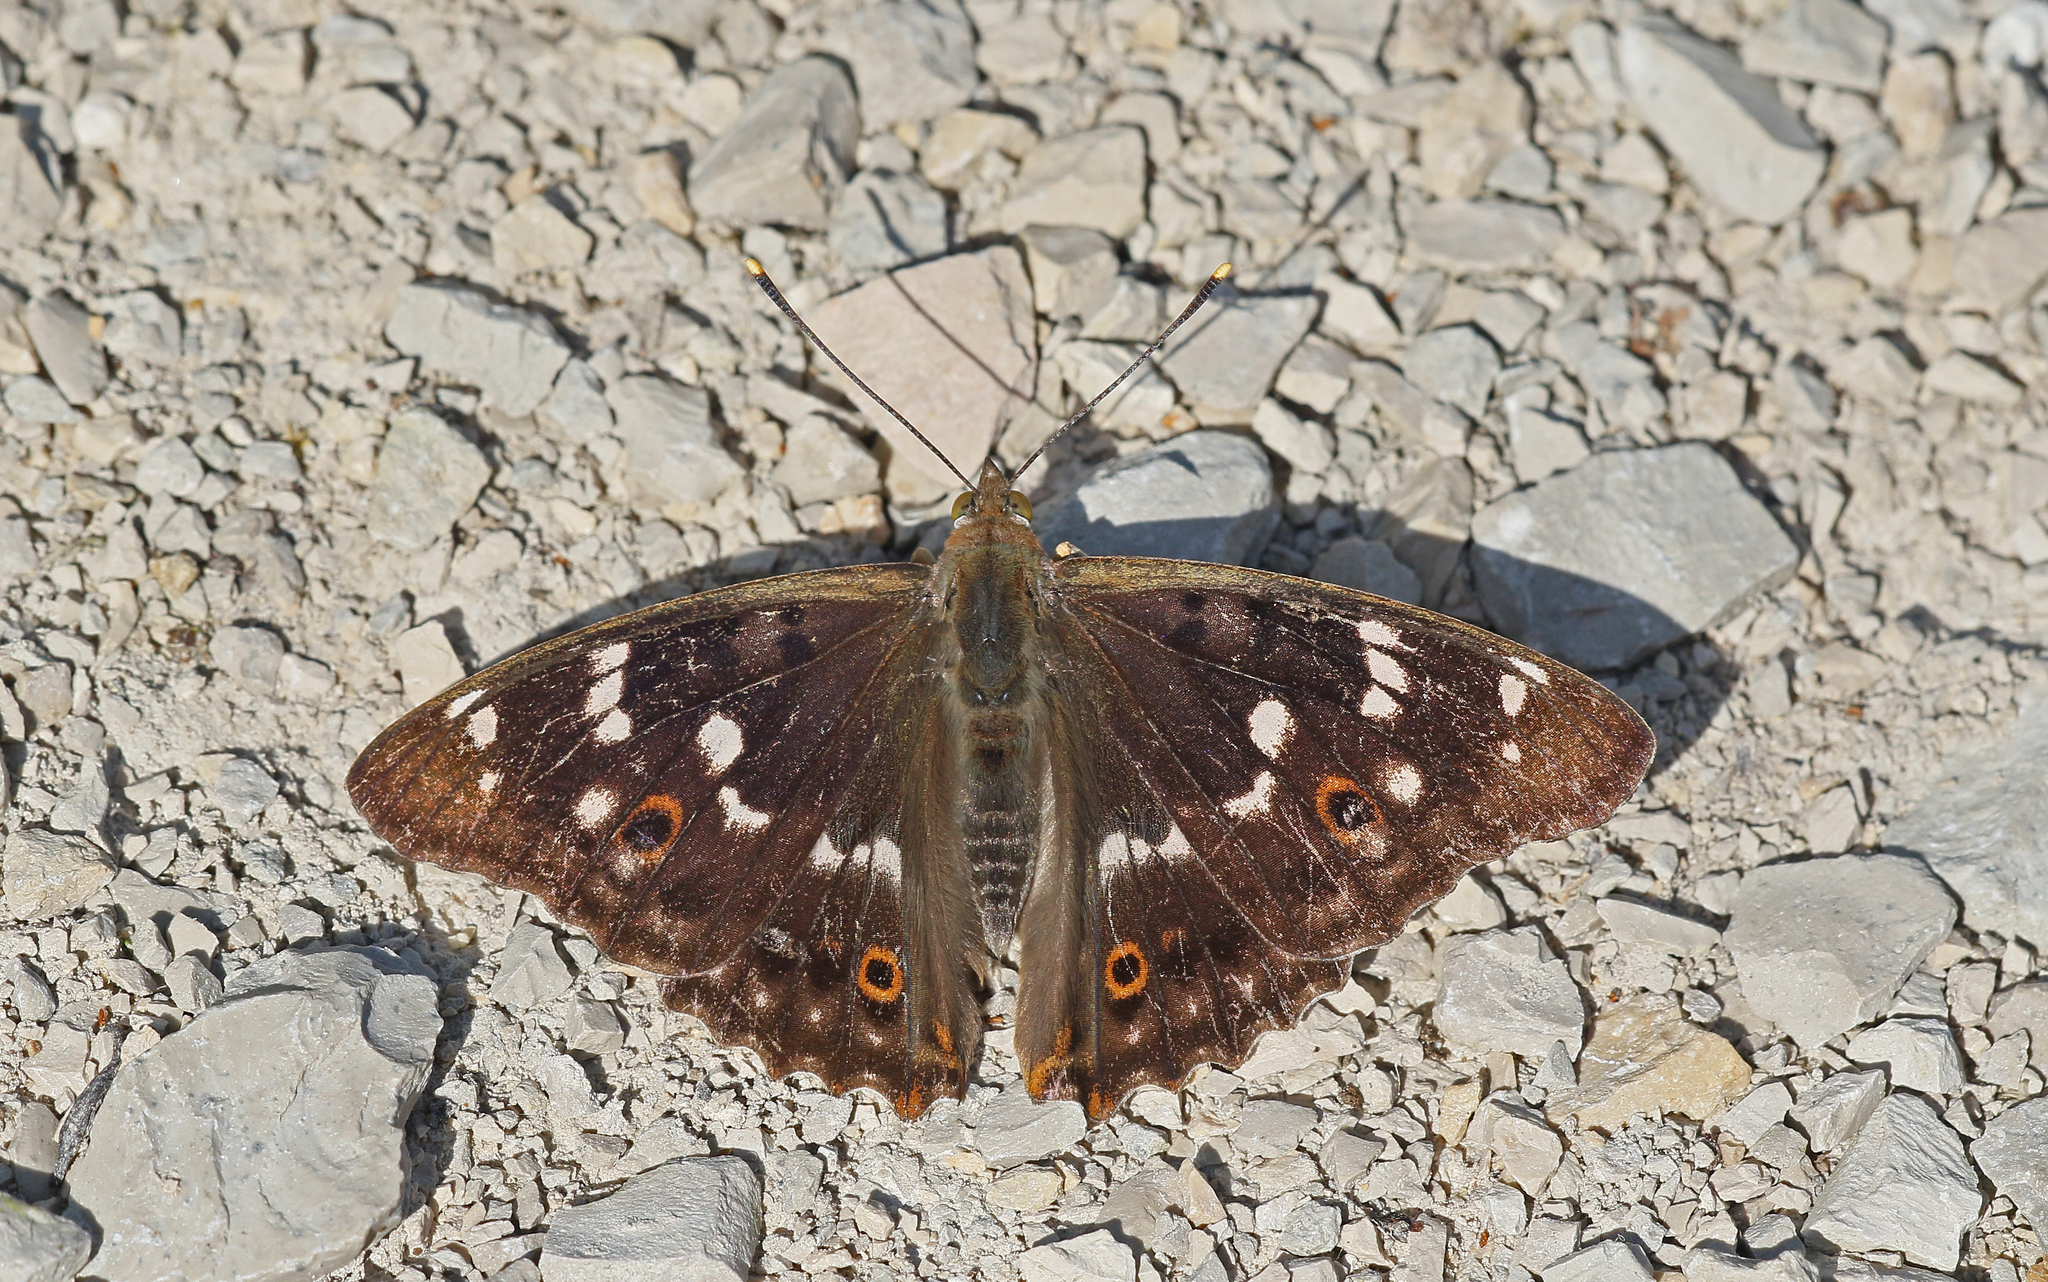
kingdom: Animalia
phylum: Arthropoda
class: Insecta
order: Lepidoptera
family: Nymphalidae
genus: Apatura
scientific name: Apatura ilia
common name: Lesser purple emperor
